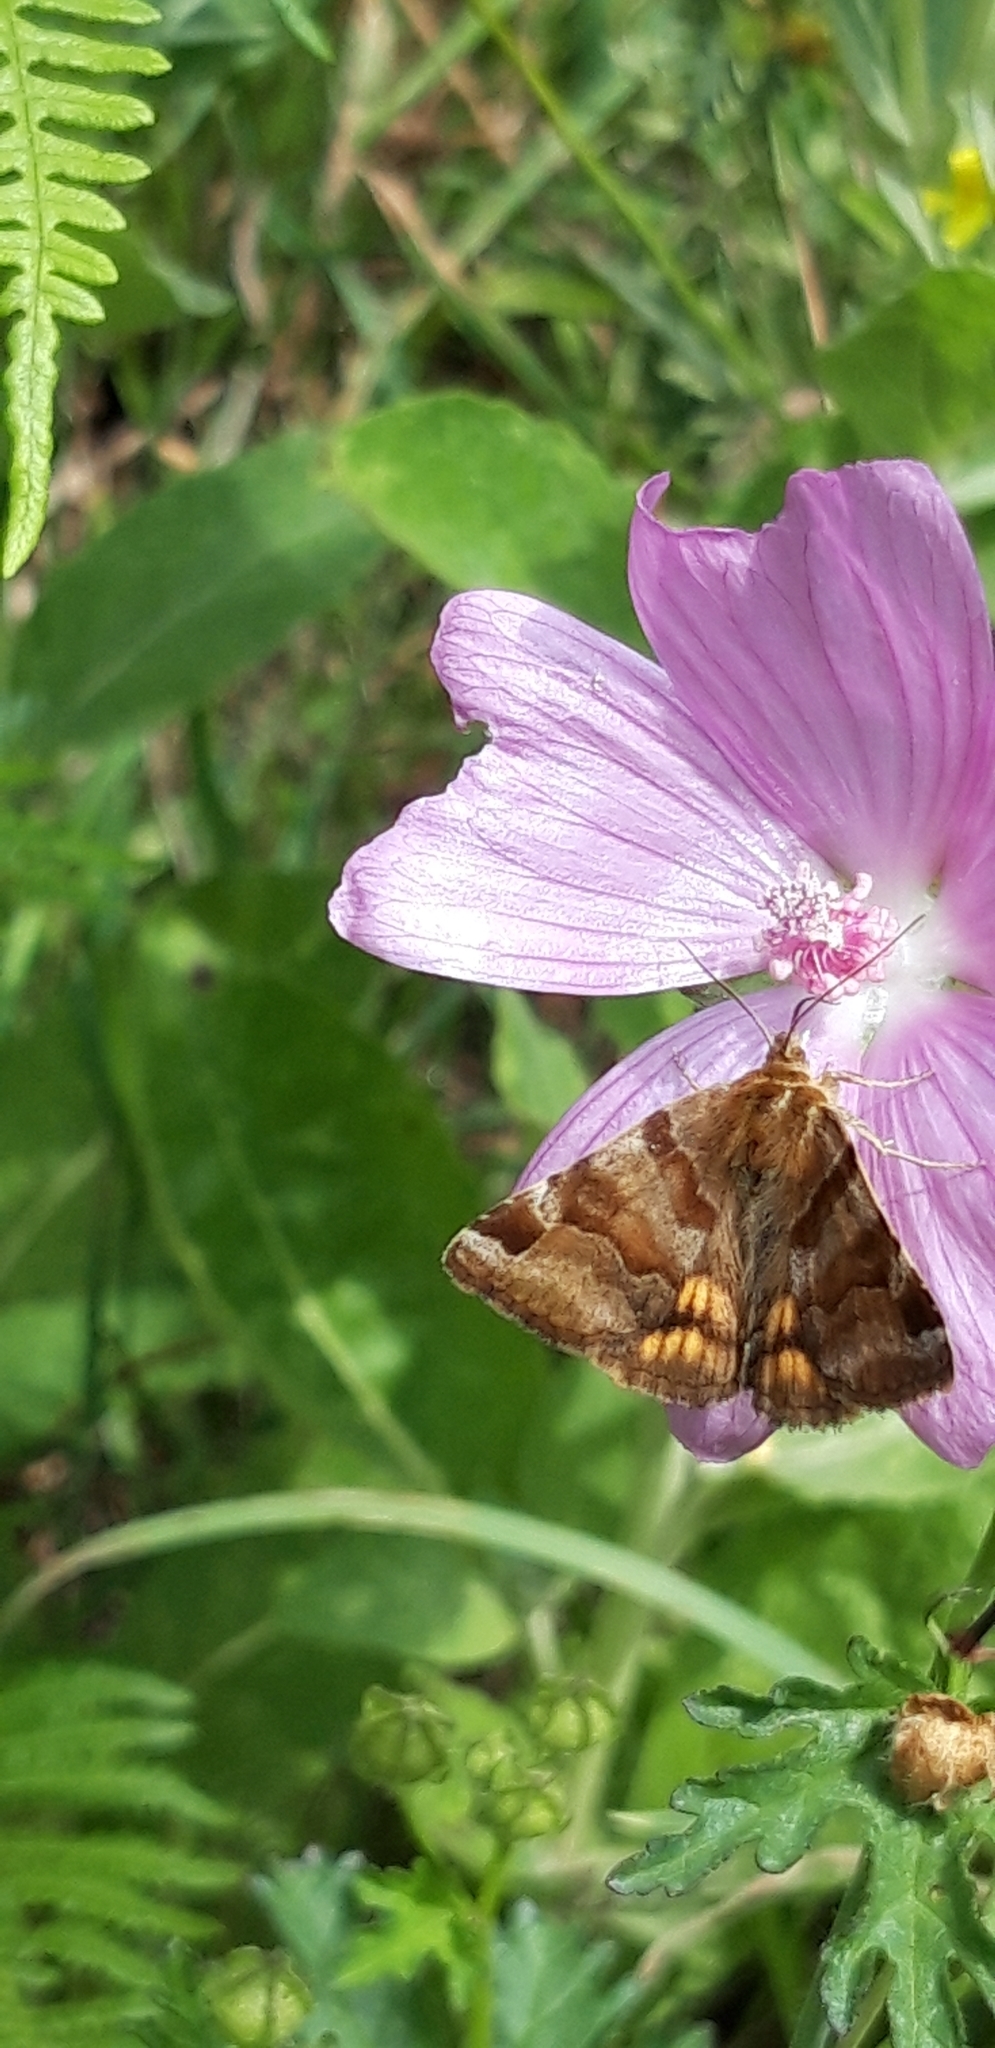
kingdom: Animalia
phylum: Arthropoda
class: Insecta
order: Lepidoptera
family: Erebidae
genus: Euclidia
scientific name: Euclidia glyphica
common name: Burnet companion
